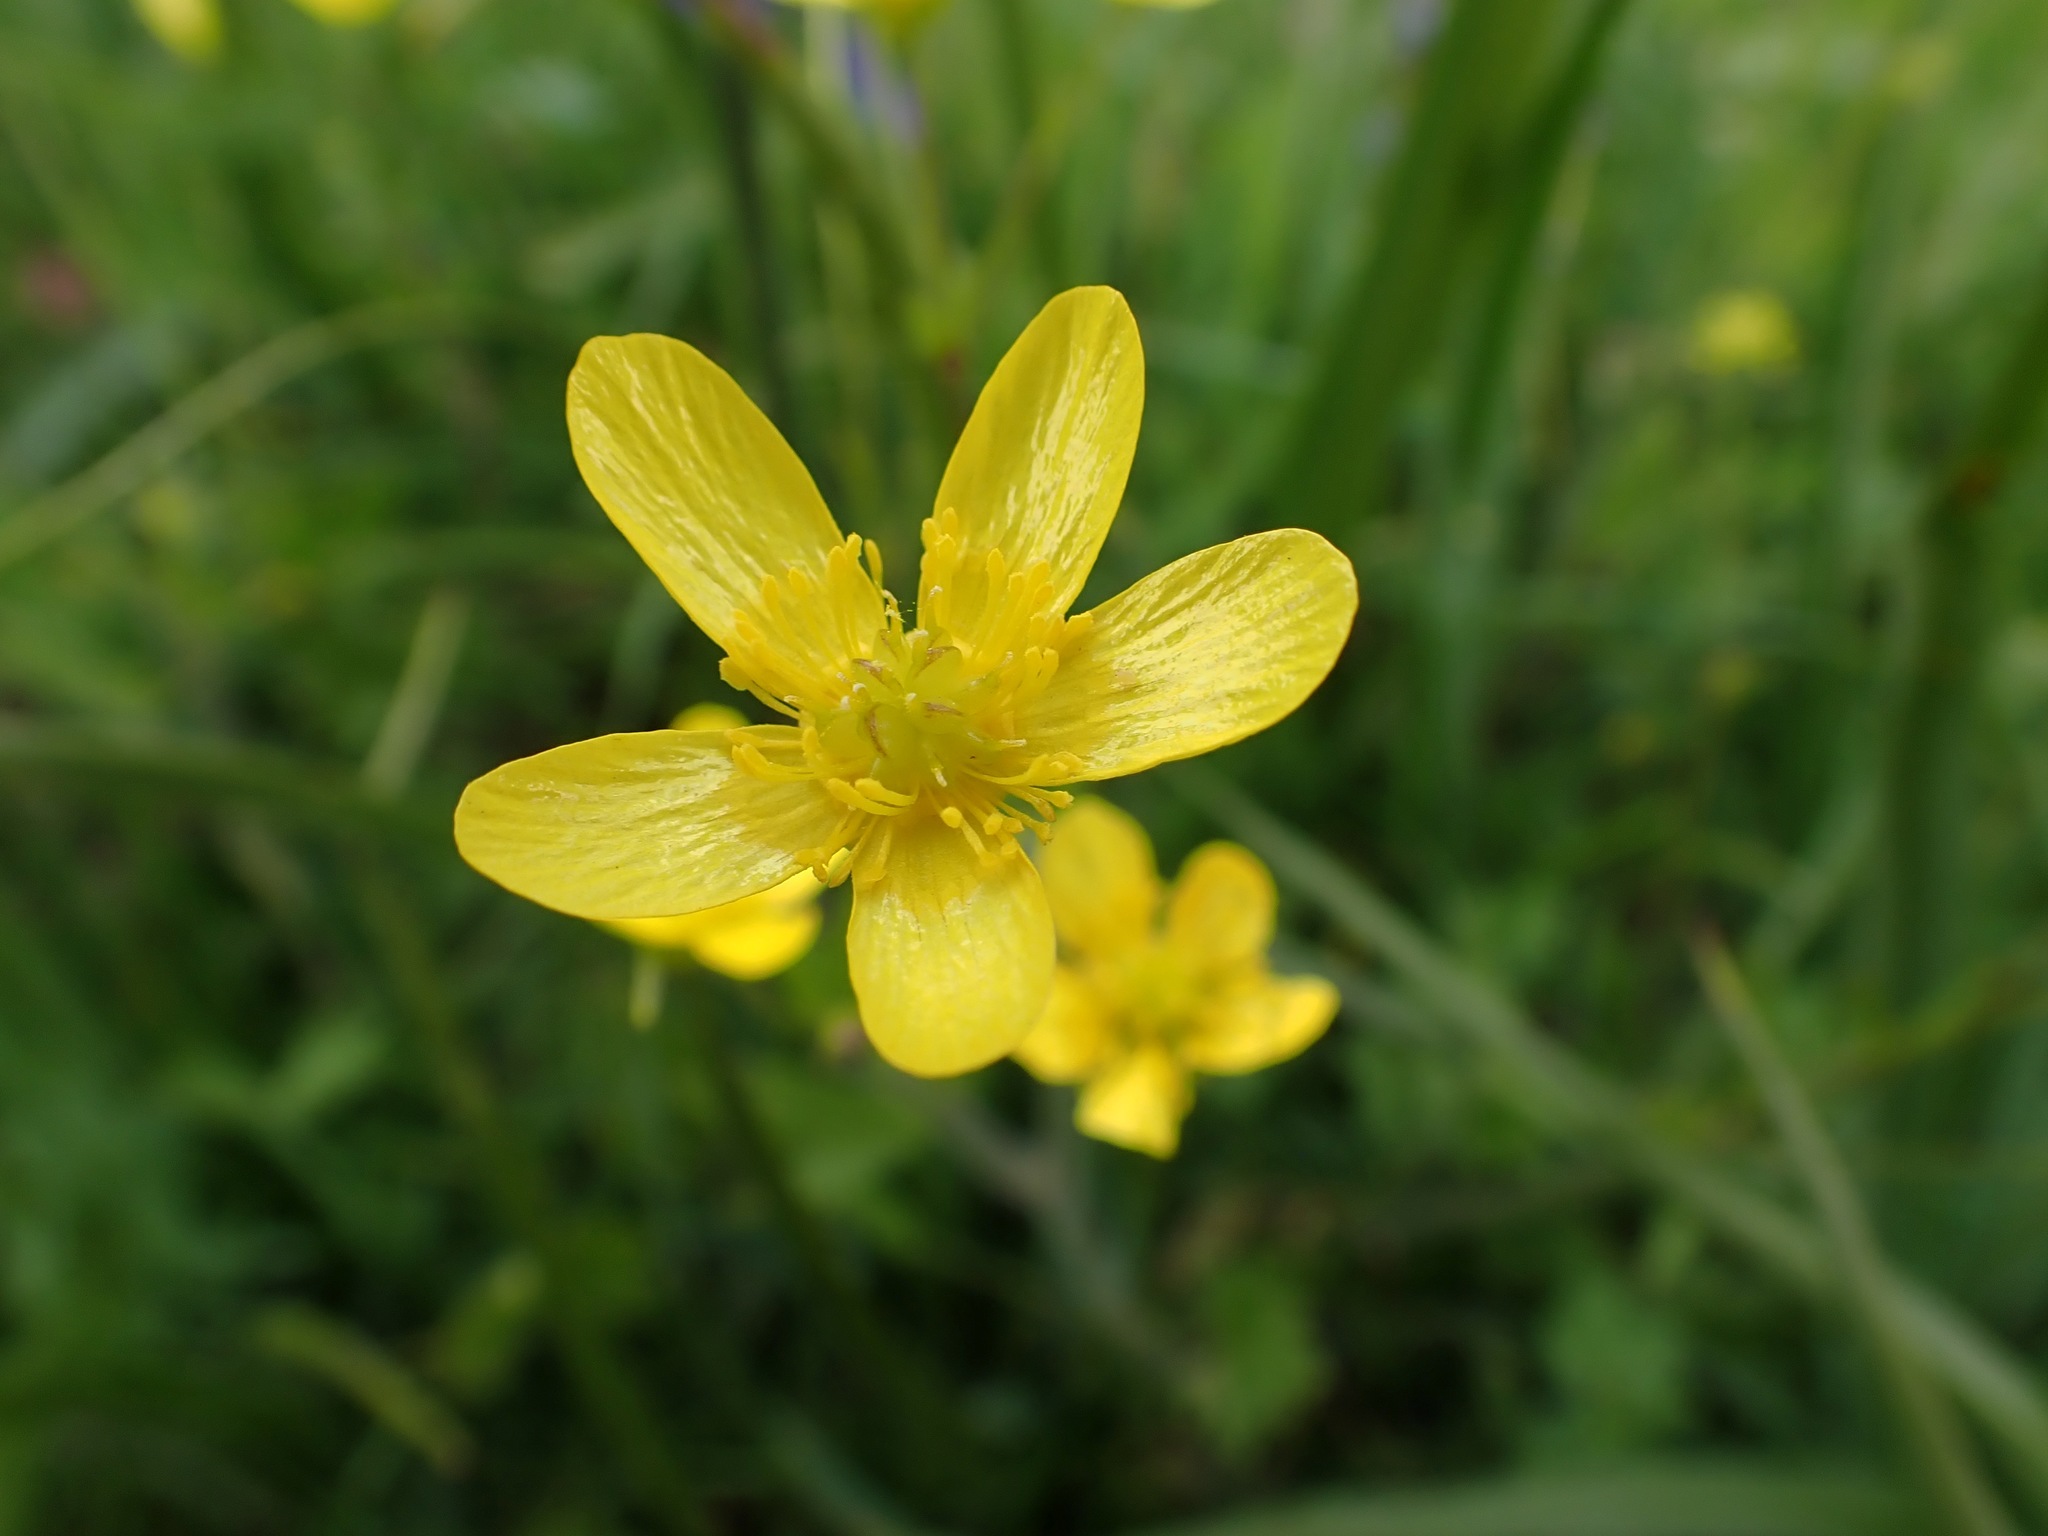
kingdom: Plantae
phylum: Tracheophyta
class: Magnoliopsida
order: Ranunculales
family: Ranunculaceae
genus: Ranunculus
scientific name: Ranunculus occidentalis
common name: Western buttercup
